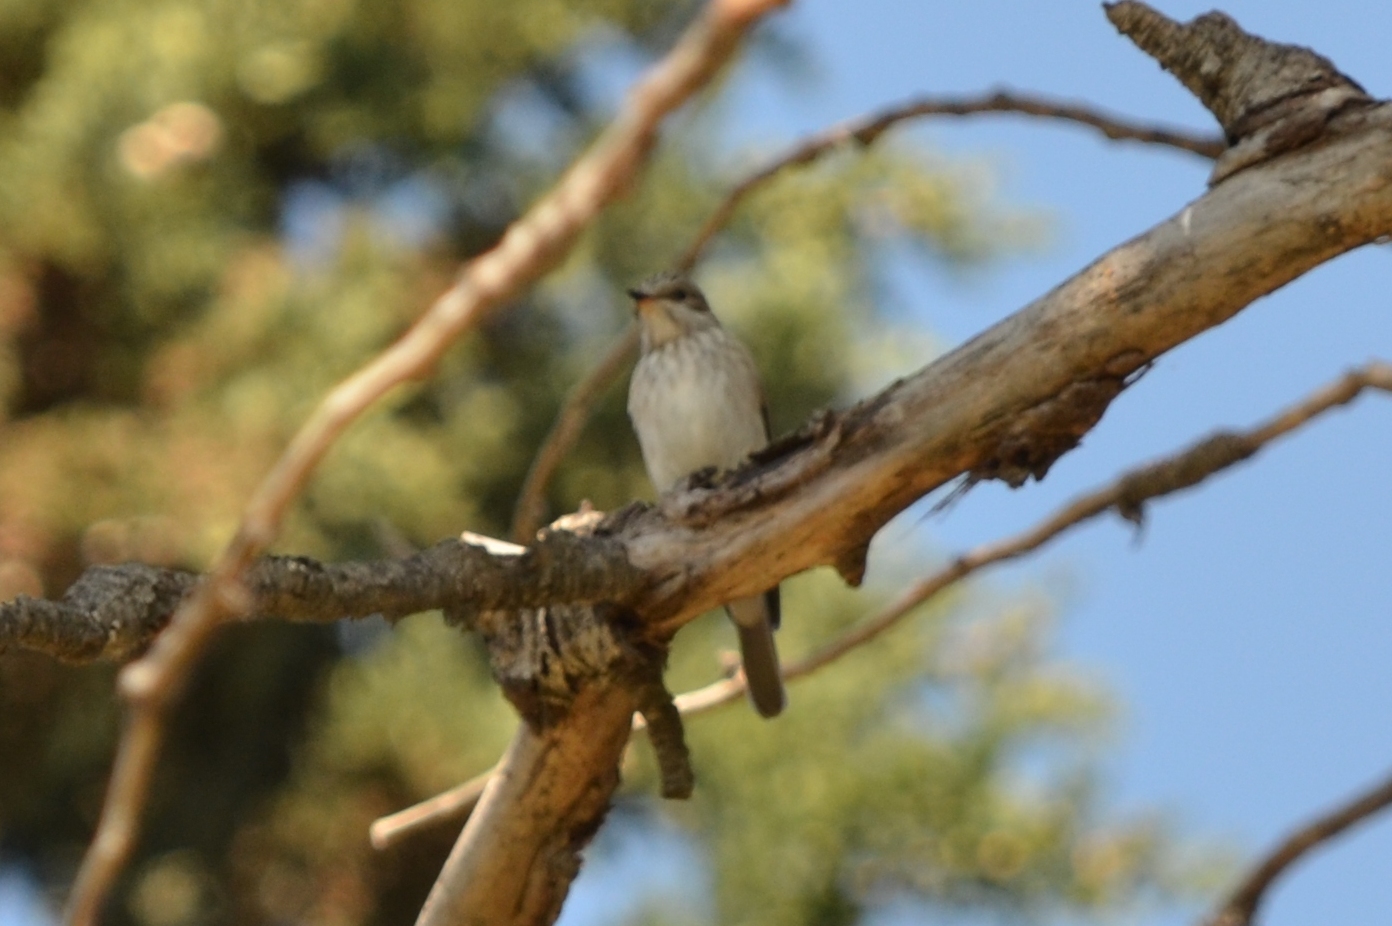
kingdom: Animalia
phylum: Chordata
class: Aves
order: Passeriformes
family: Muscicapidae
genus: Muscicapa
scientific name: Muscicapa striata
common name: Spotted flycatcher
